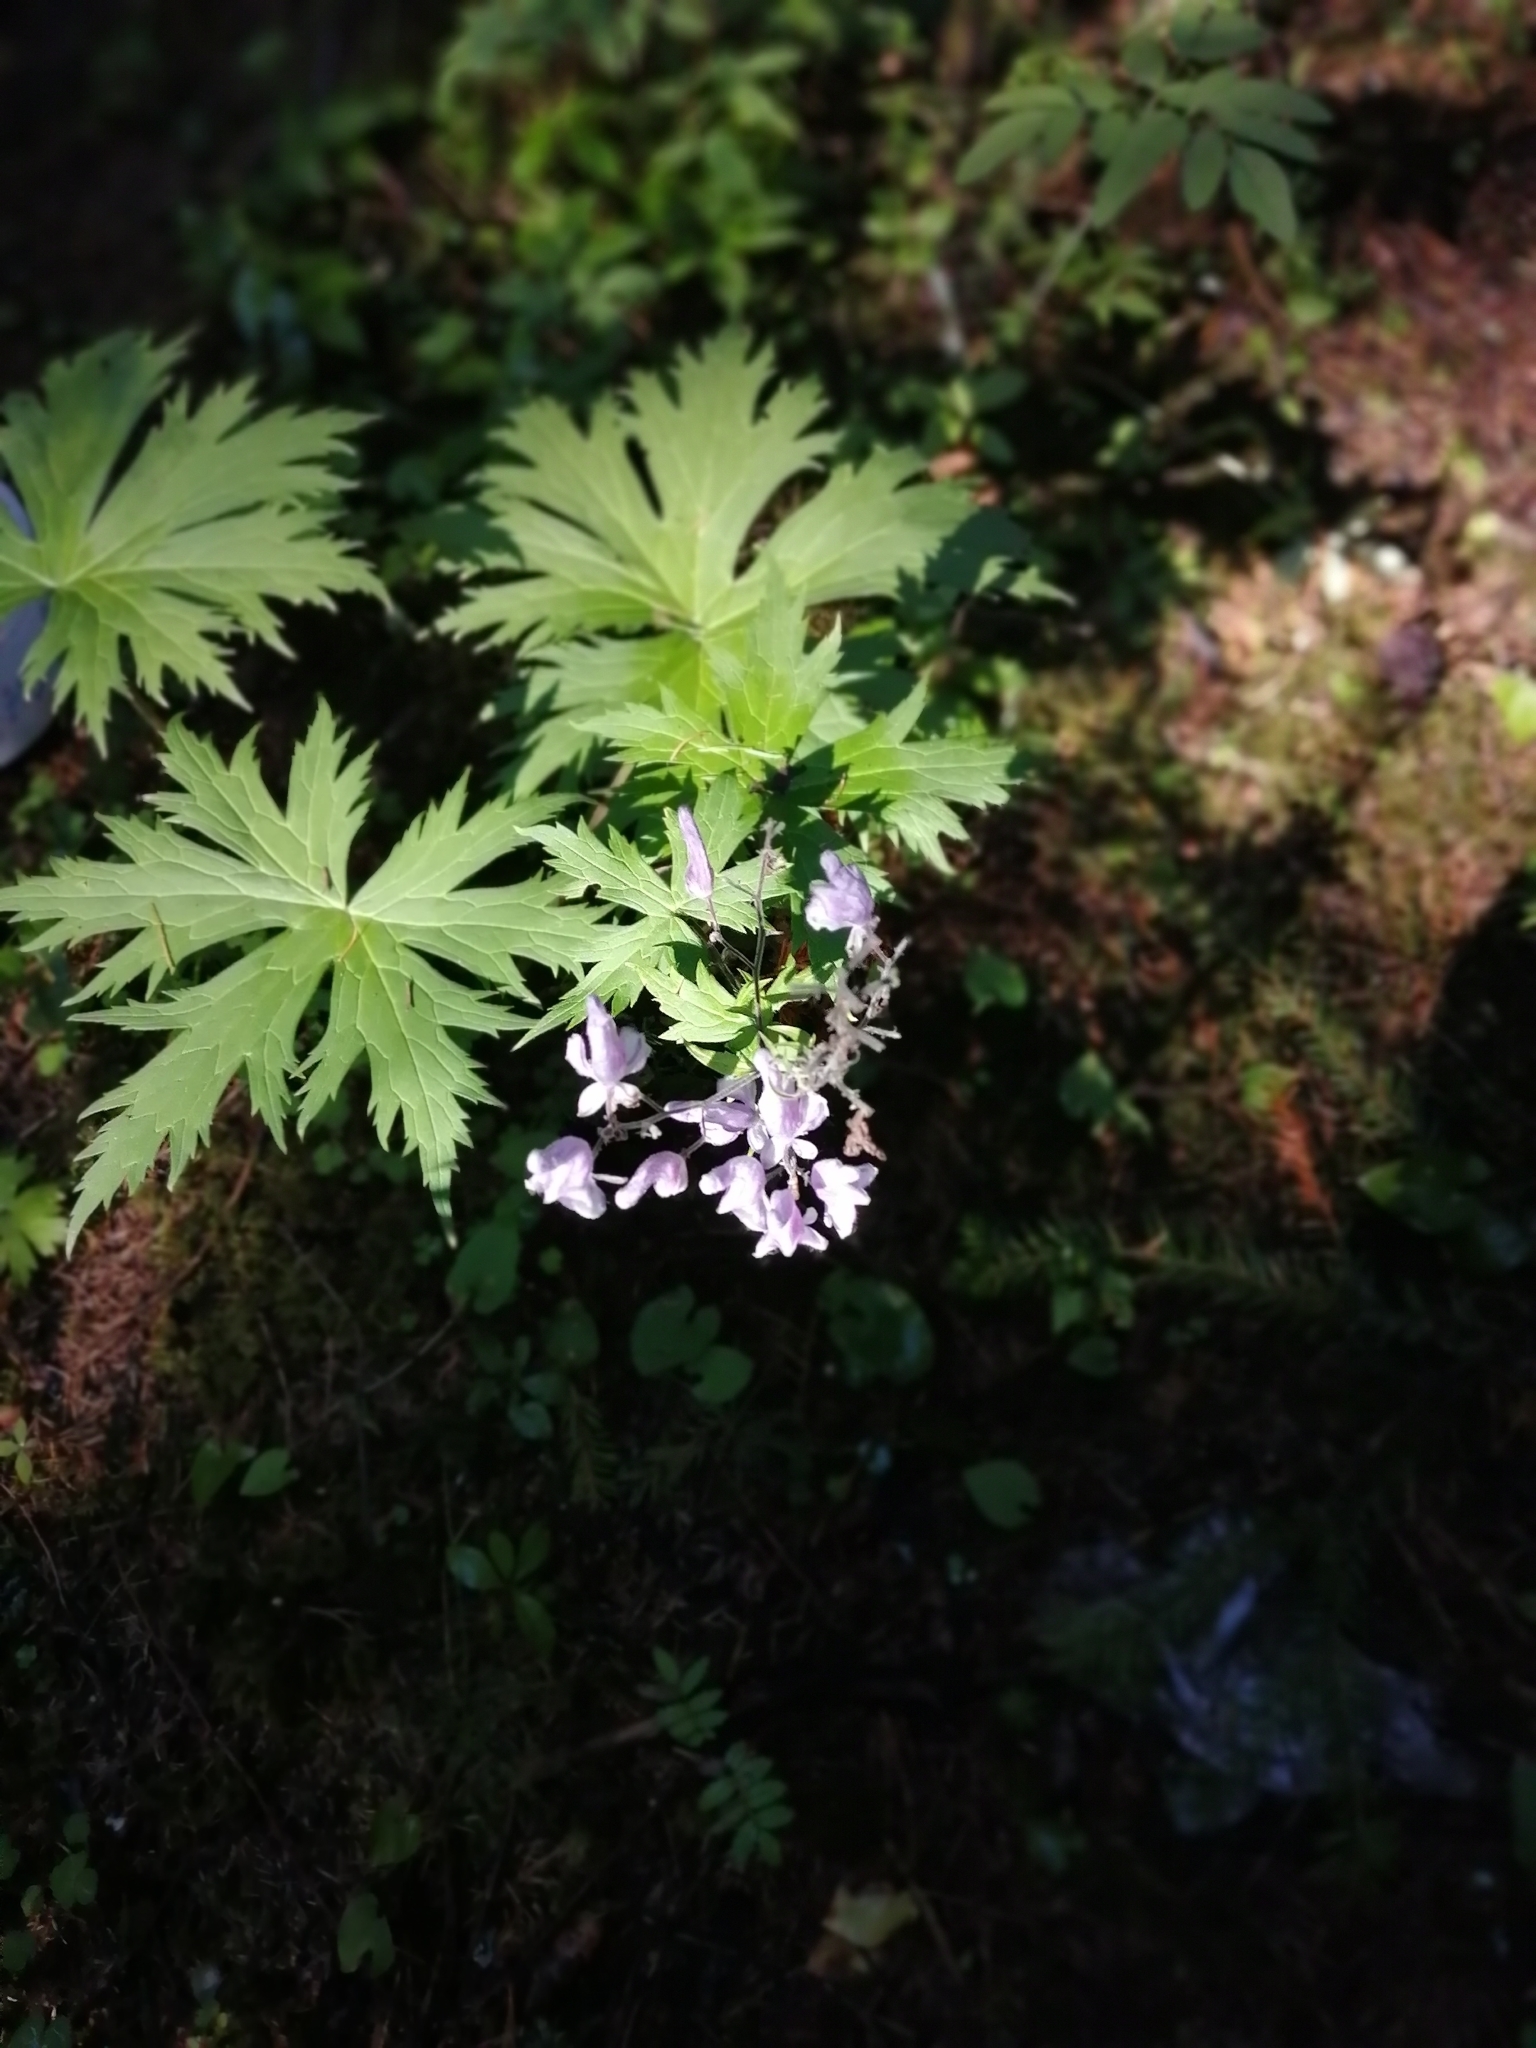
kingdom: Plantae
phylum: Tracheophyta
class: Magnoliopsida
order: Ranunculales
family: Ranunculaceae
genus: Aconitum
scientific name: Aconitum septentrionale
